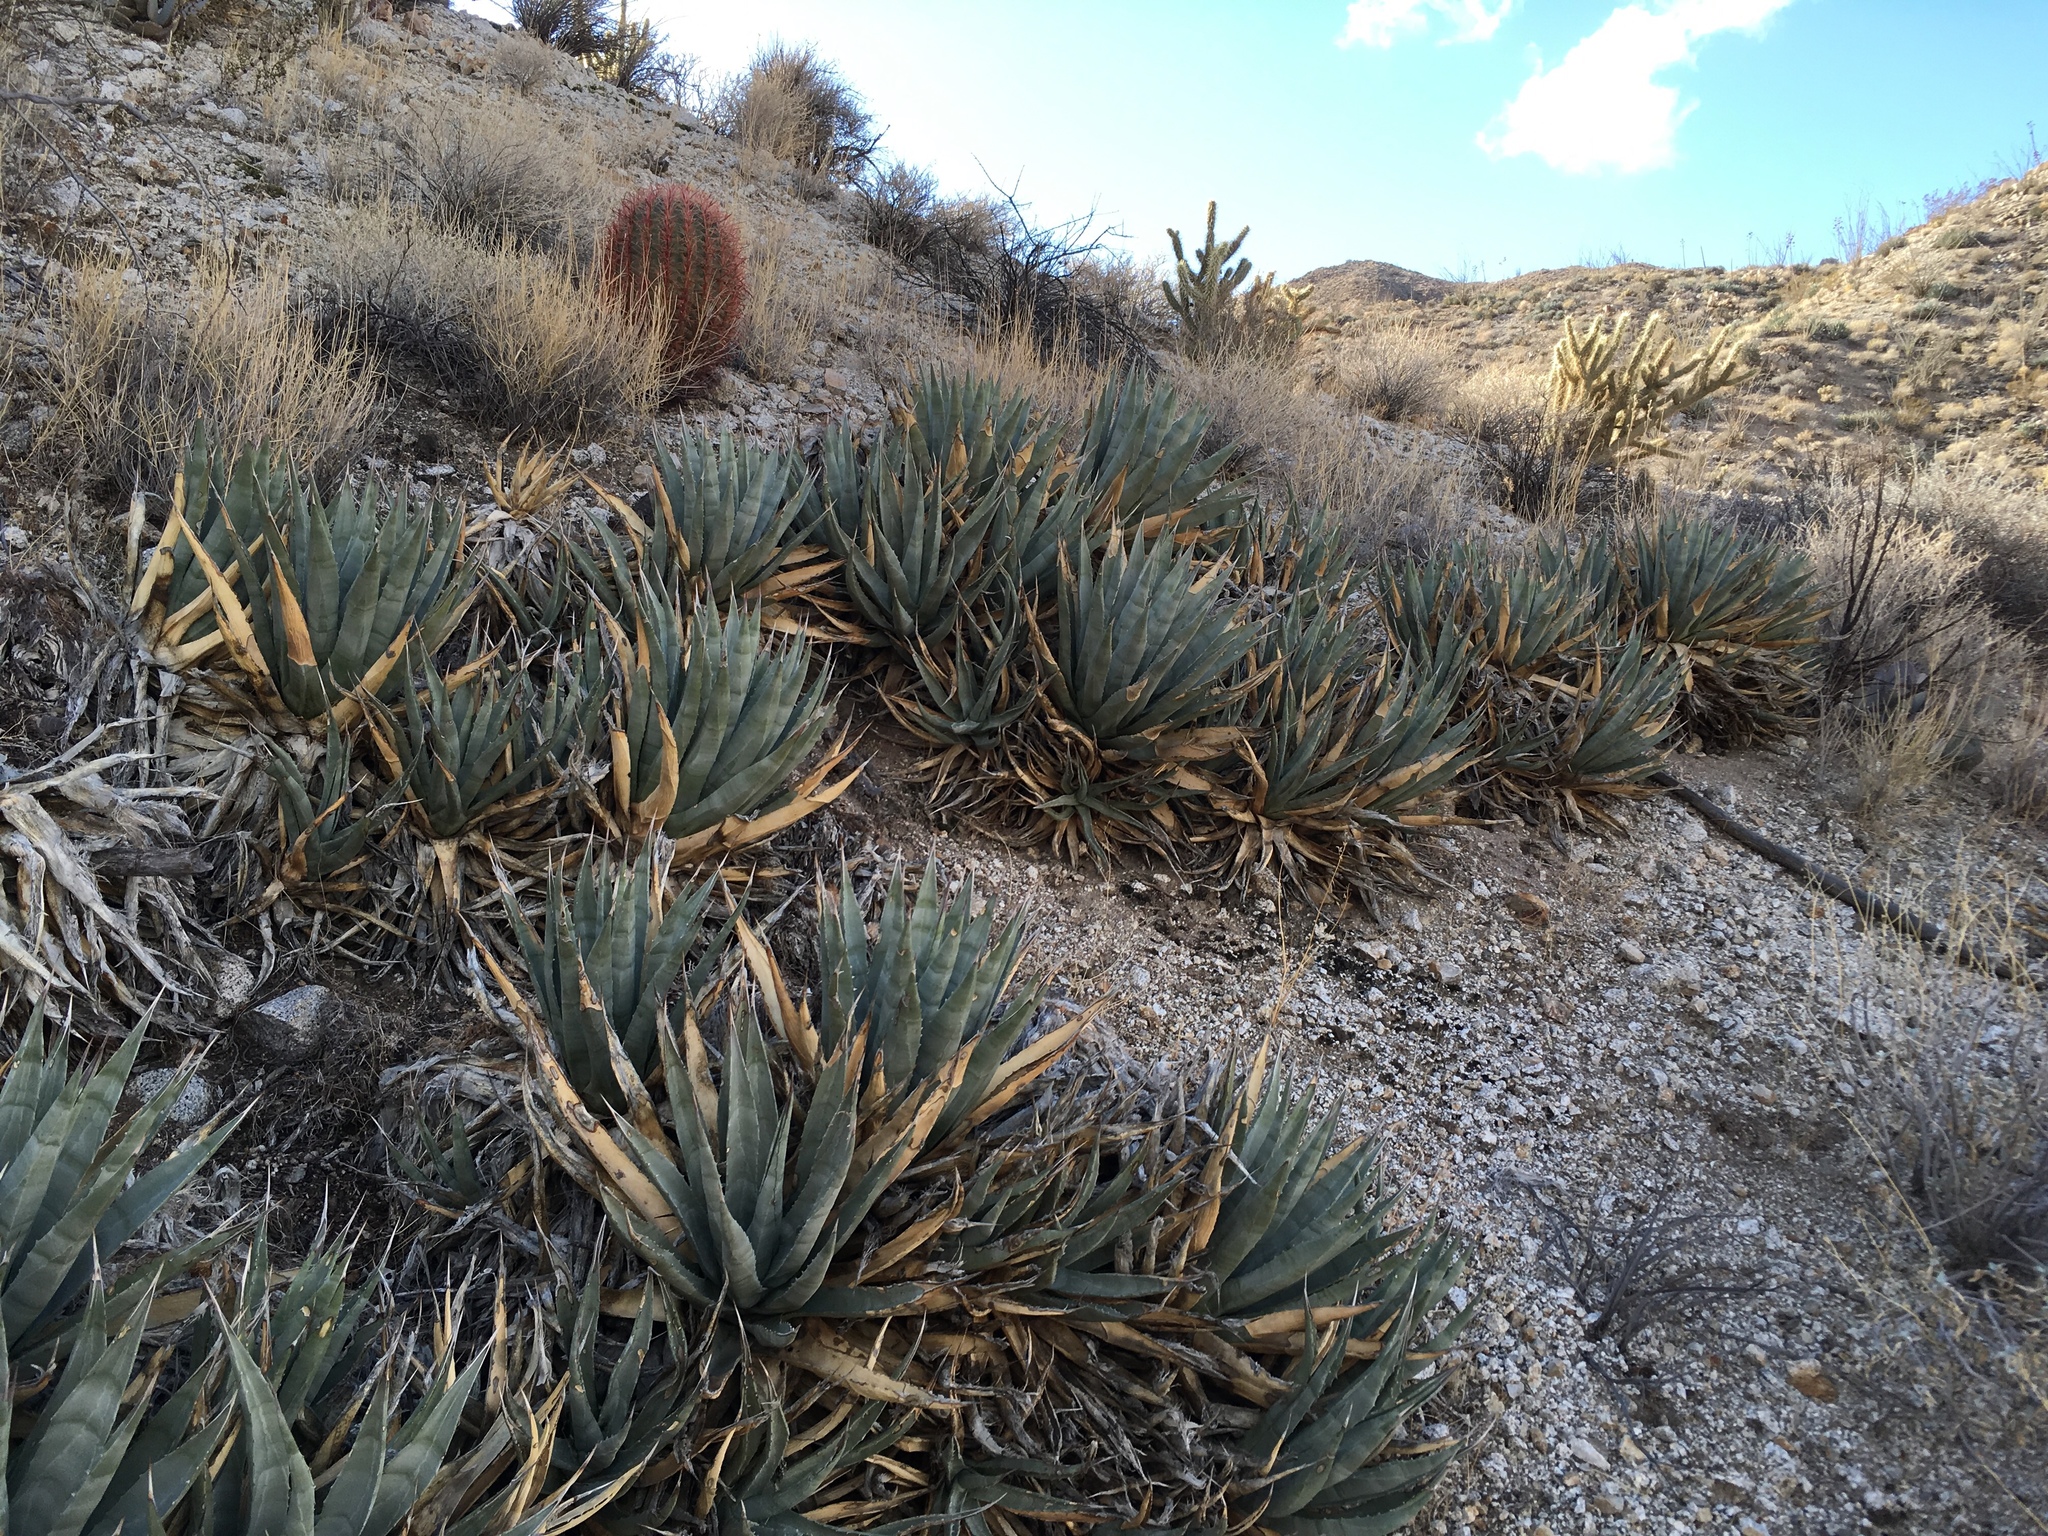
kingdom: Plantae
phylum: Tracheophyta
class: Liliopsida
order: Asparagales
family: Asparagaceae
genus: Agave
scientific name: Agave deserti
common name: Desert agave
